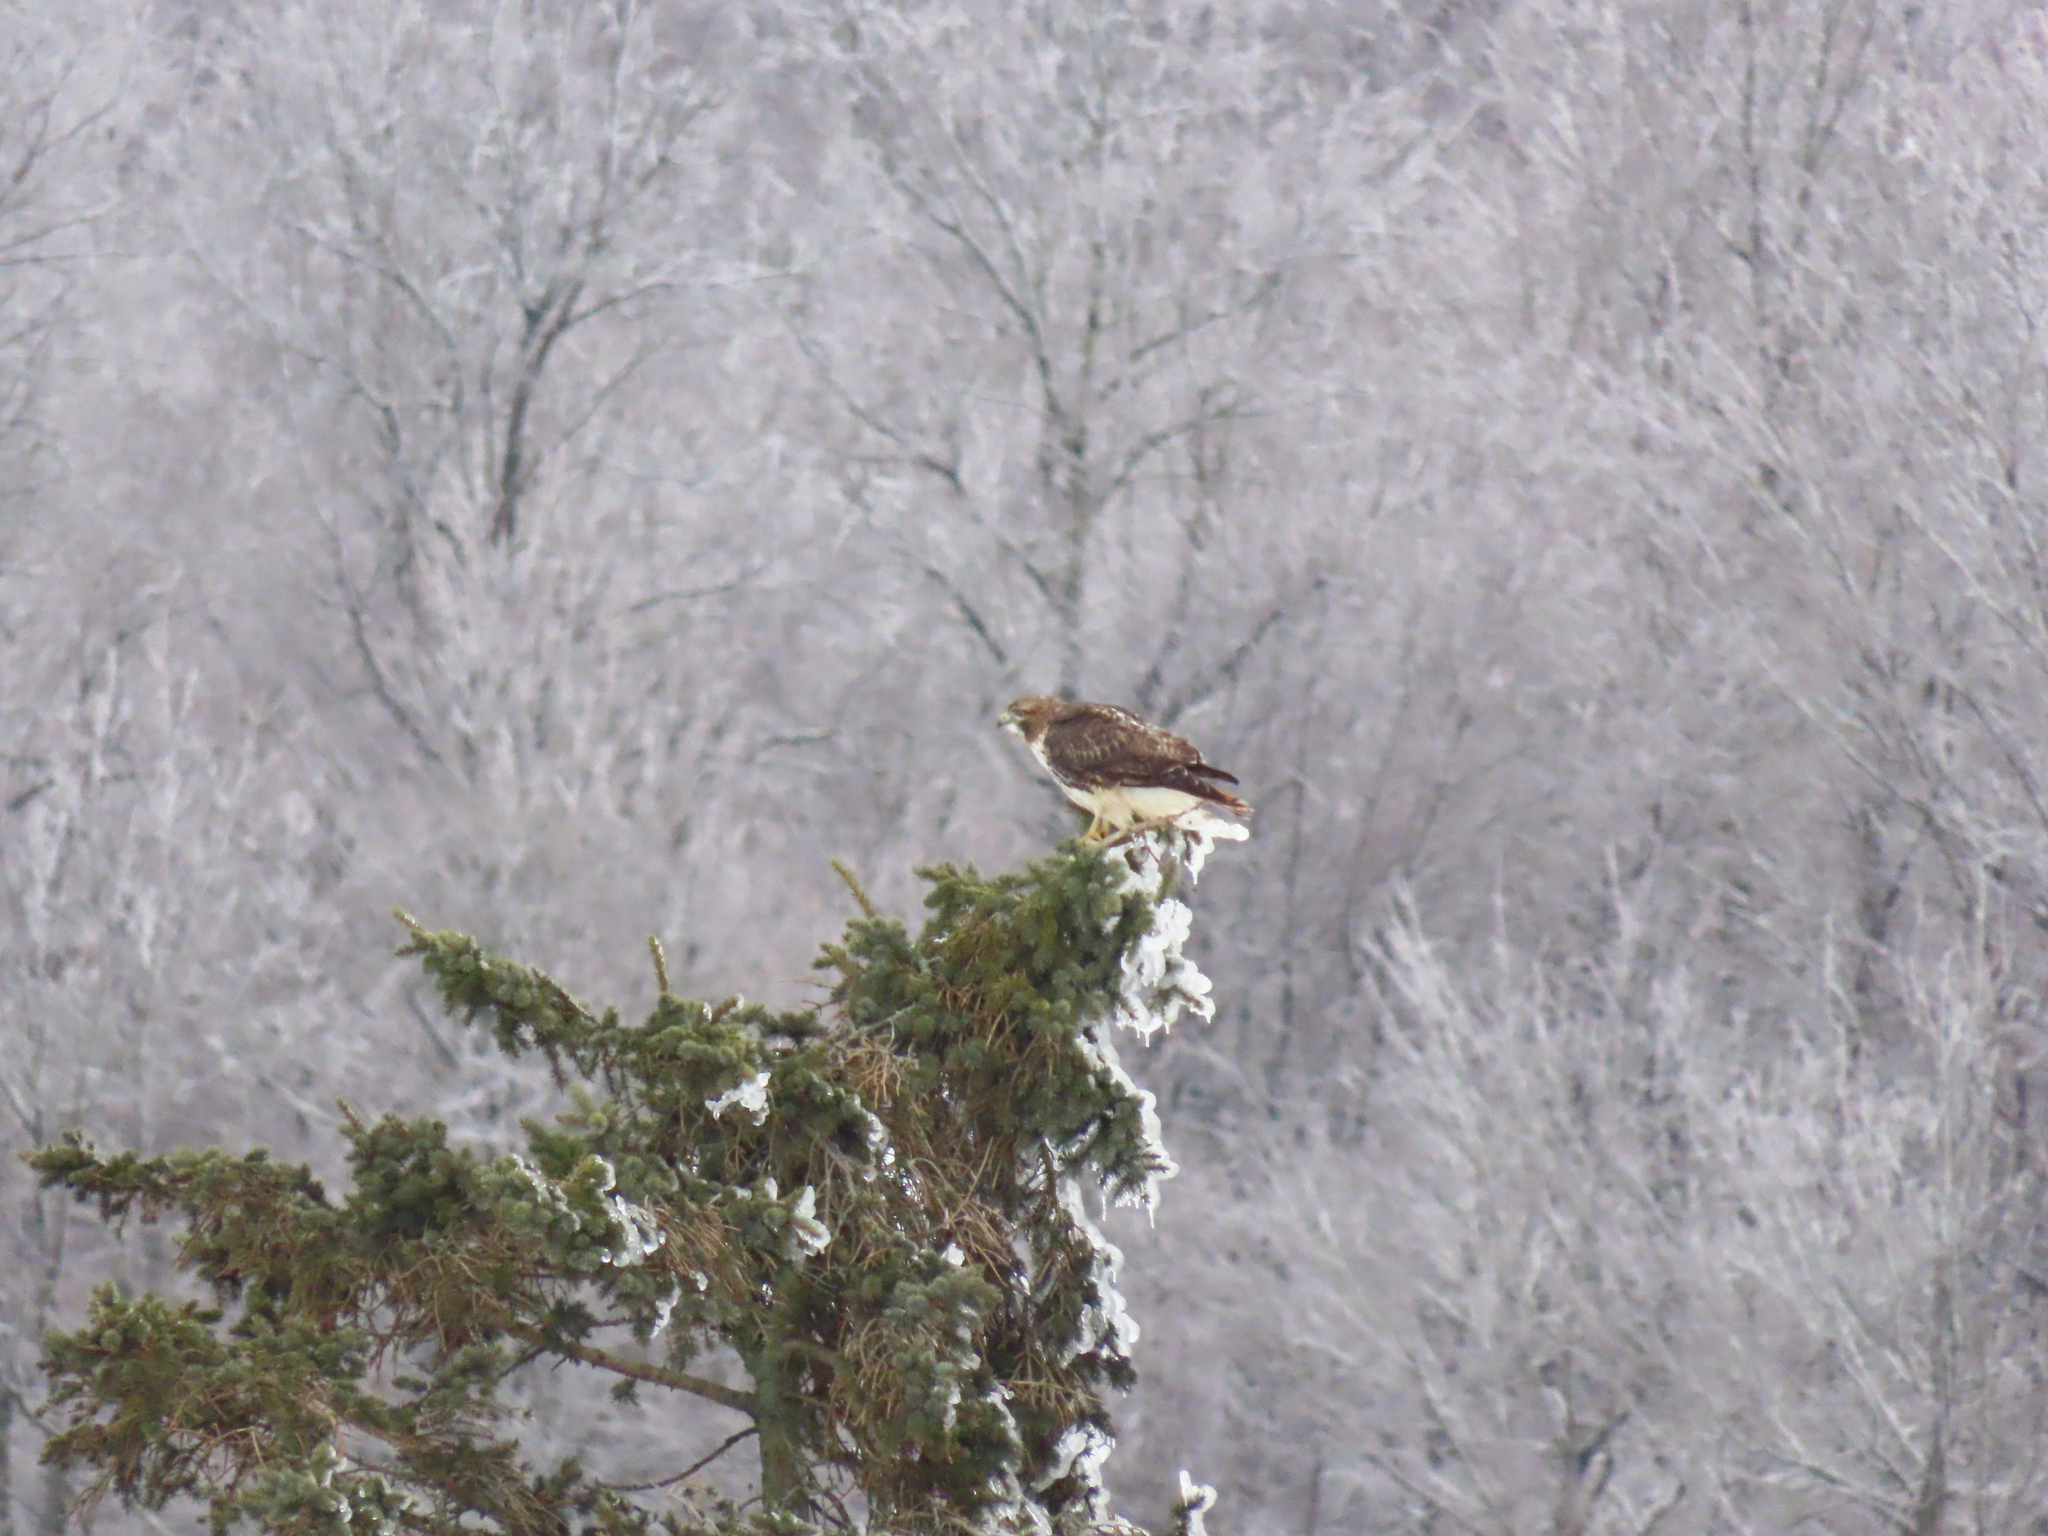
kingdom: Animalia
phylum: Chordata
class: Aves
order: Accipitriformes
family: Accipitridae
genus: Buteo
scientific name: Buteo jamaicensis
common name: Red-tailed hawk
